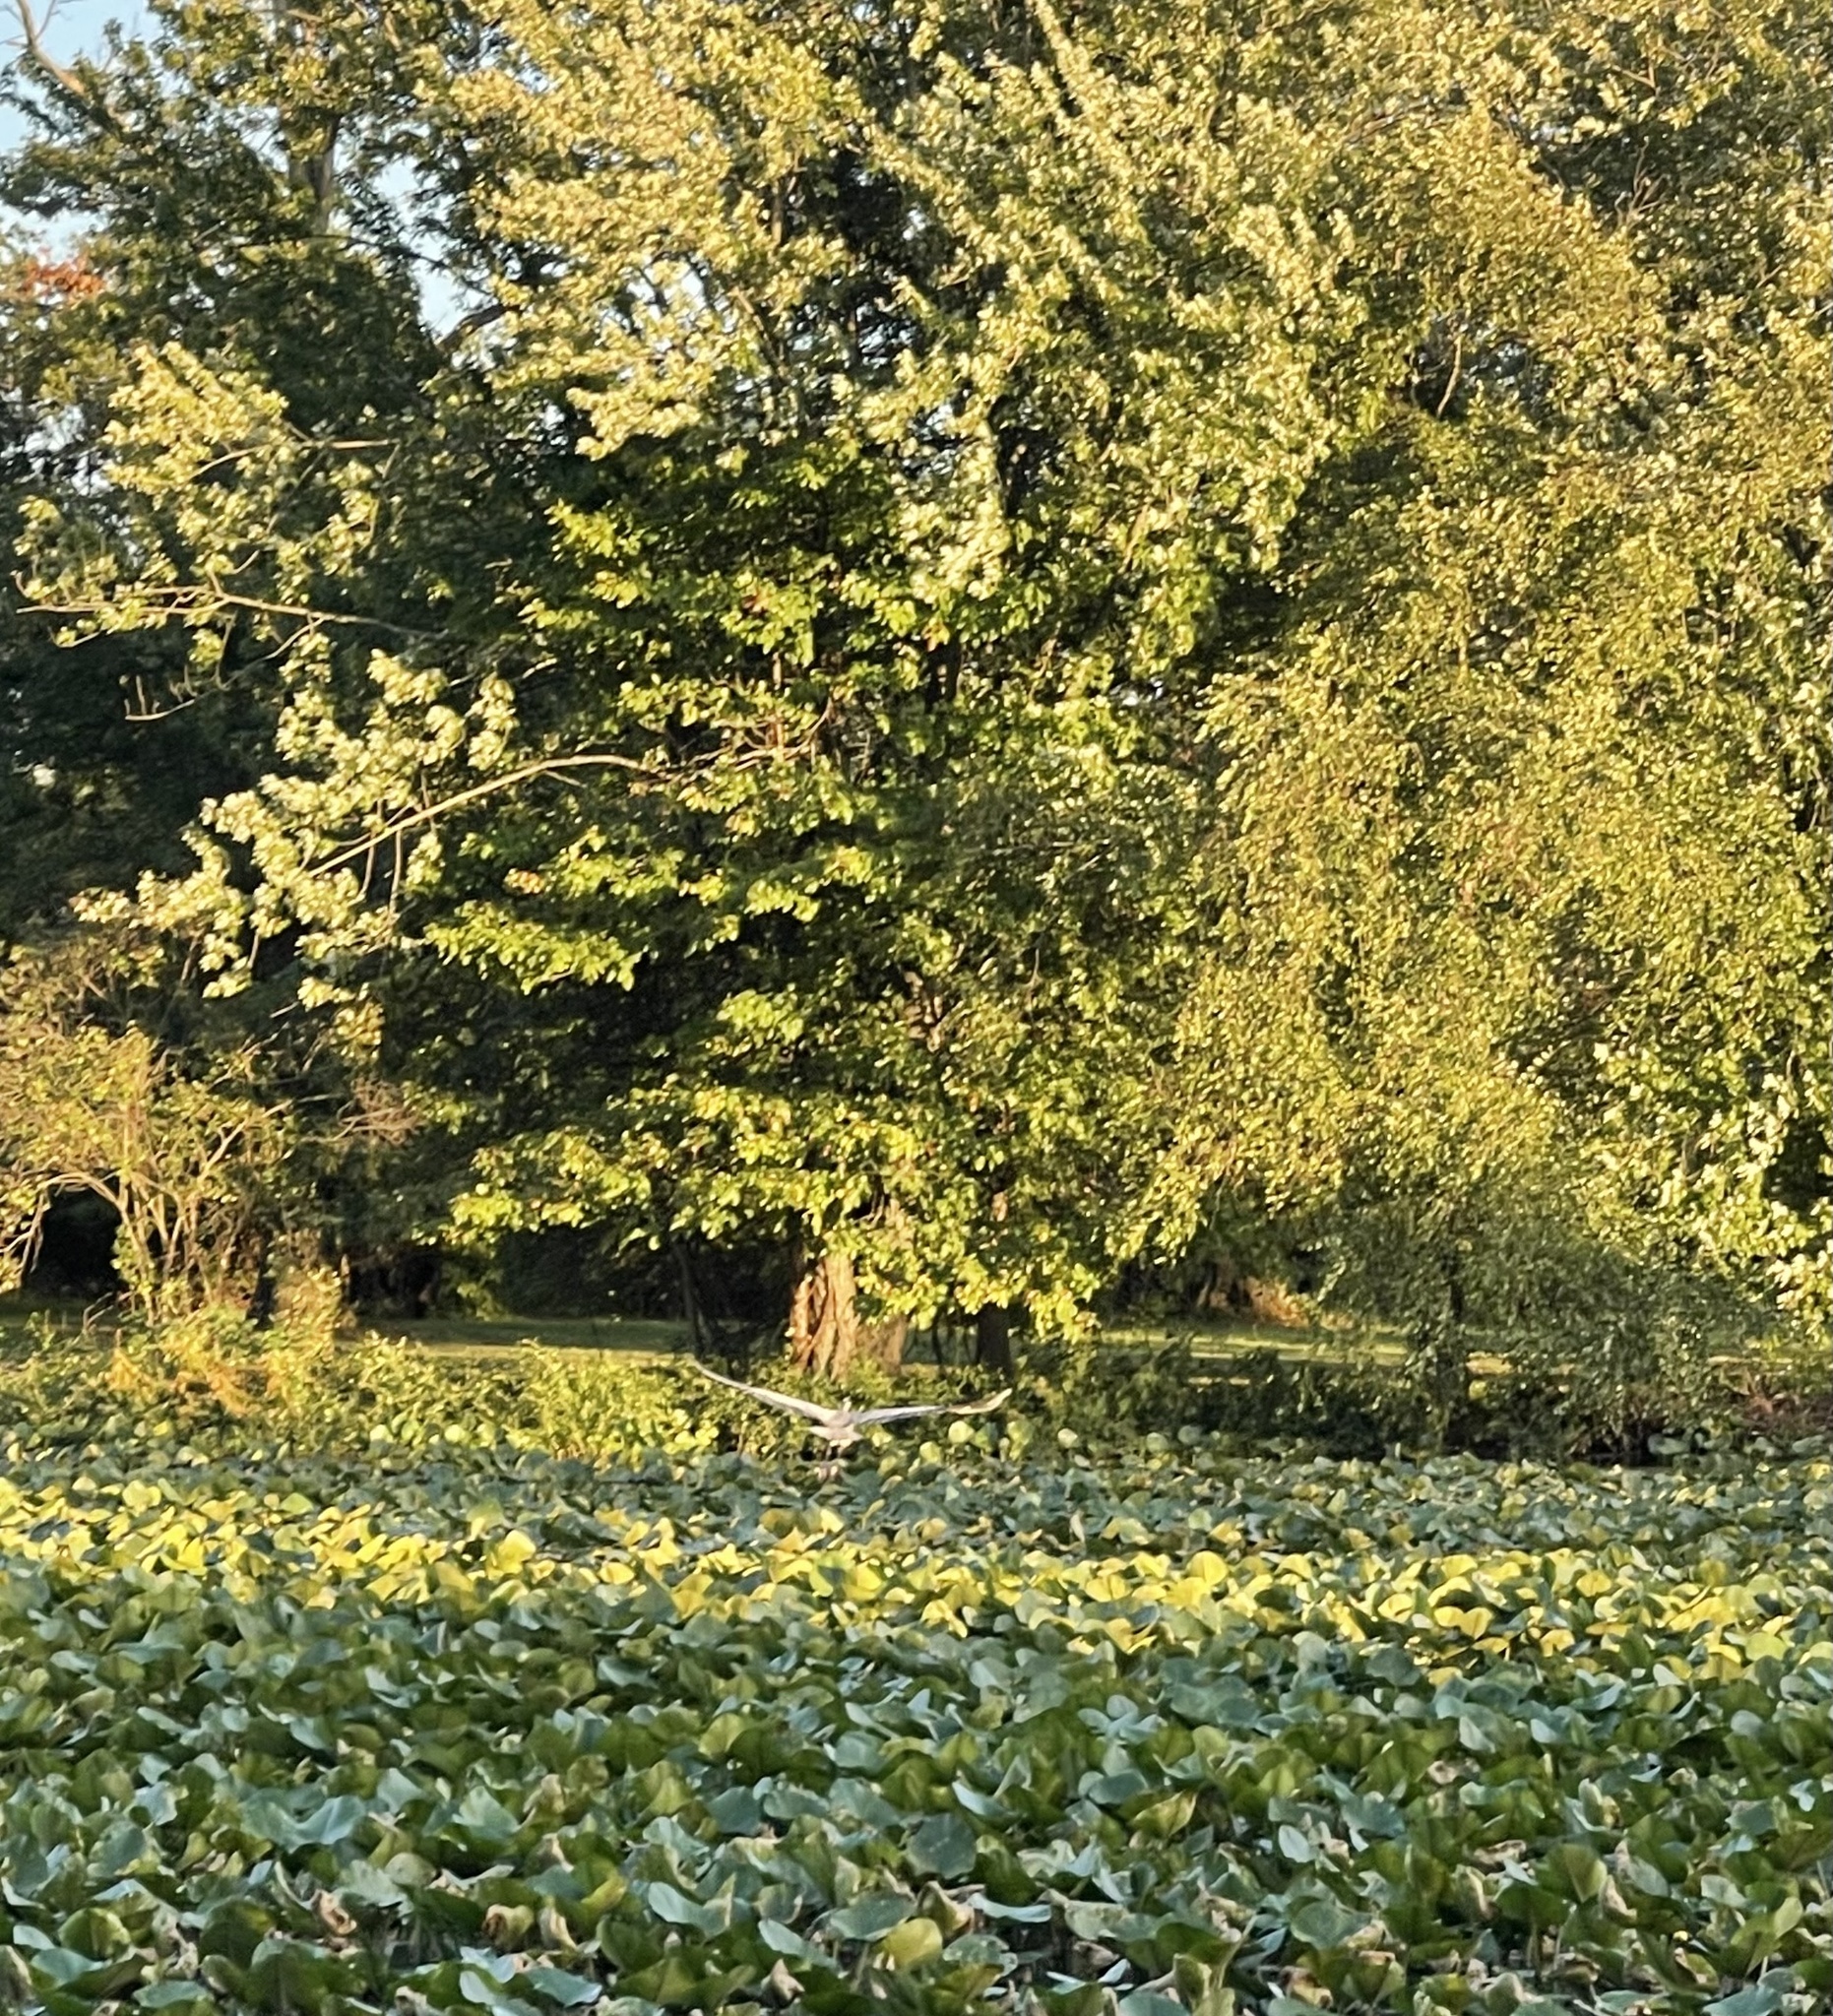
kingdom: Animalia
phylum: Chordata
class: Aves
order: Pelecaniformes
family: Ardeidae
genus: Ardea
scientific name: Ardea herodias
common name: Great blue heron
